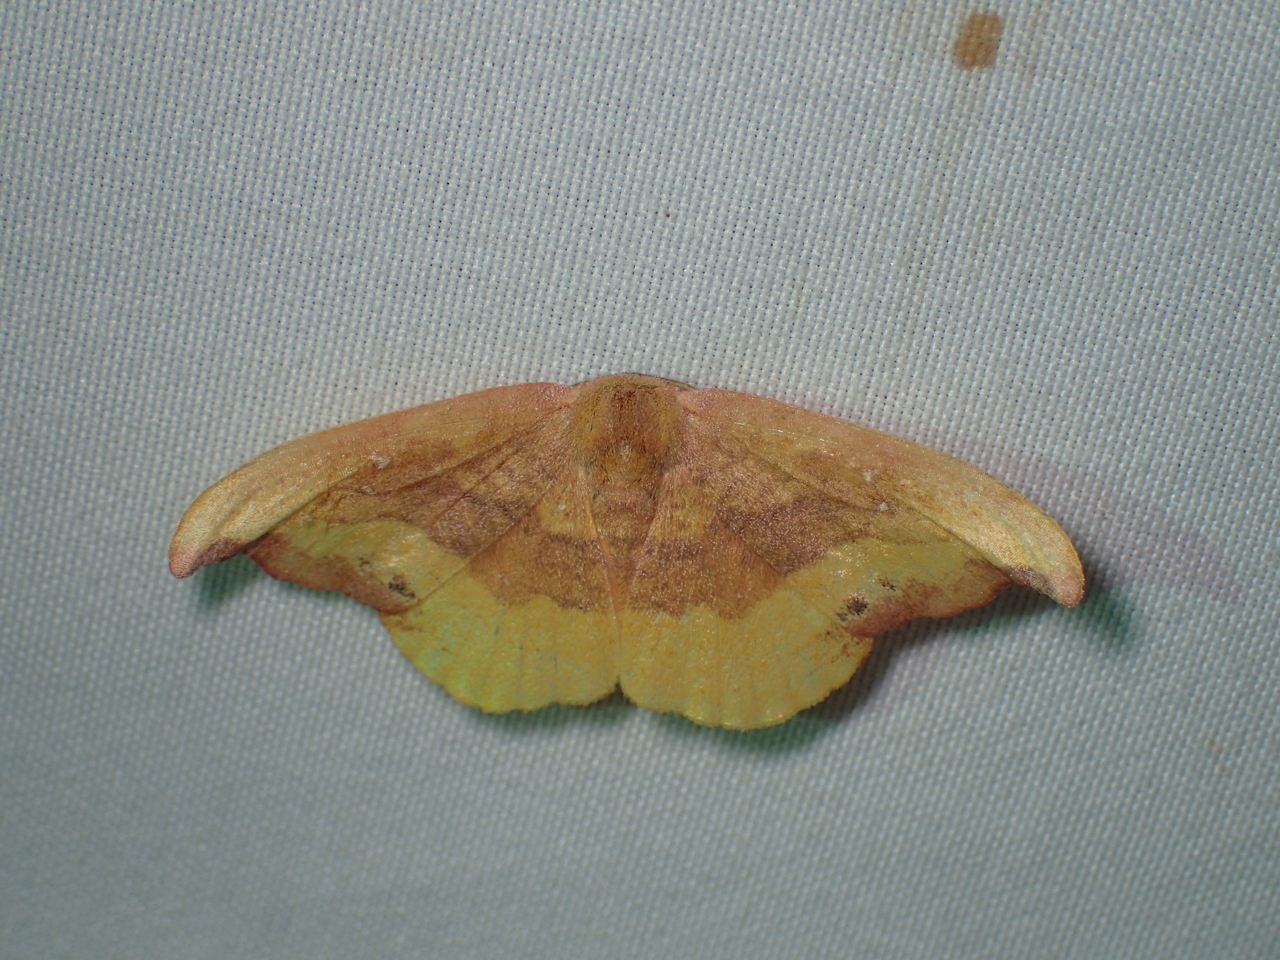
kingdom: Animalia
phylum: Arthropoda
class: Insecta
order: Lepidoptera
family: Drepanidae
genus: Oreta
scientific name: Oreta rosea
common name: Rose hooktip
